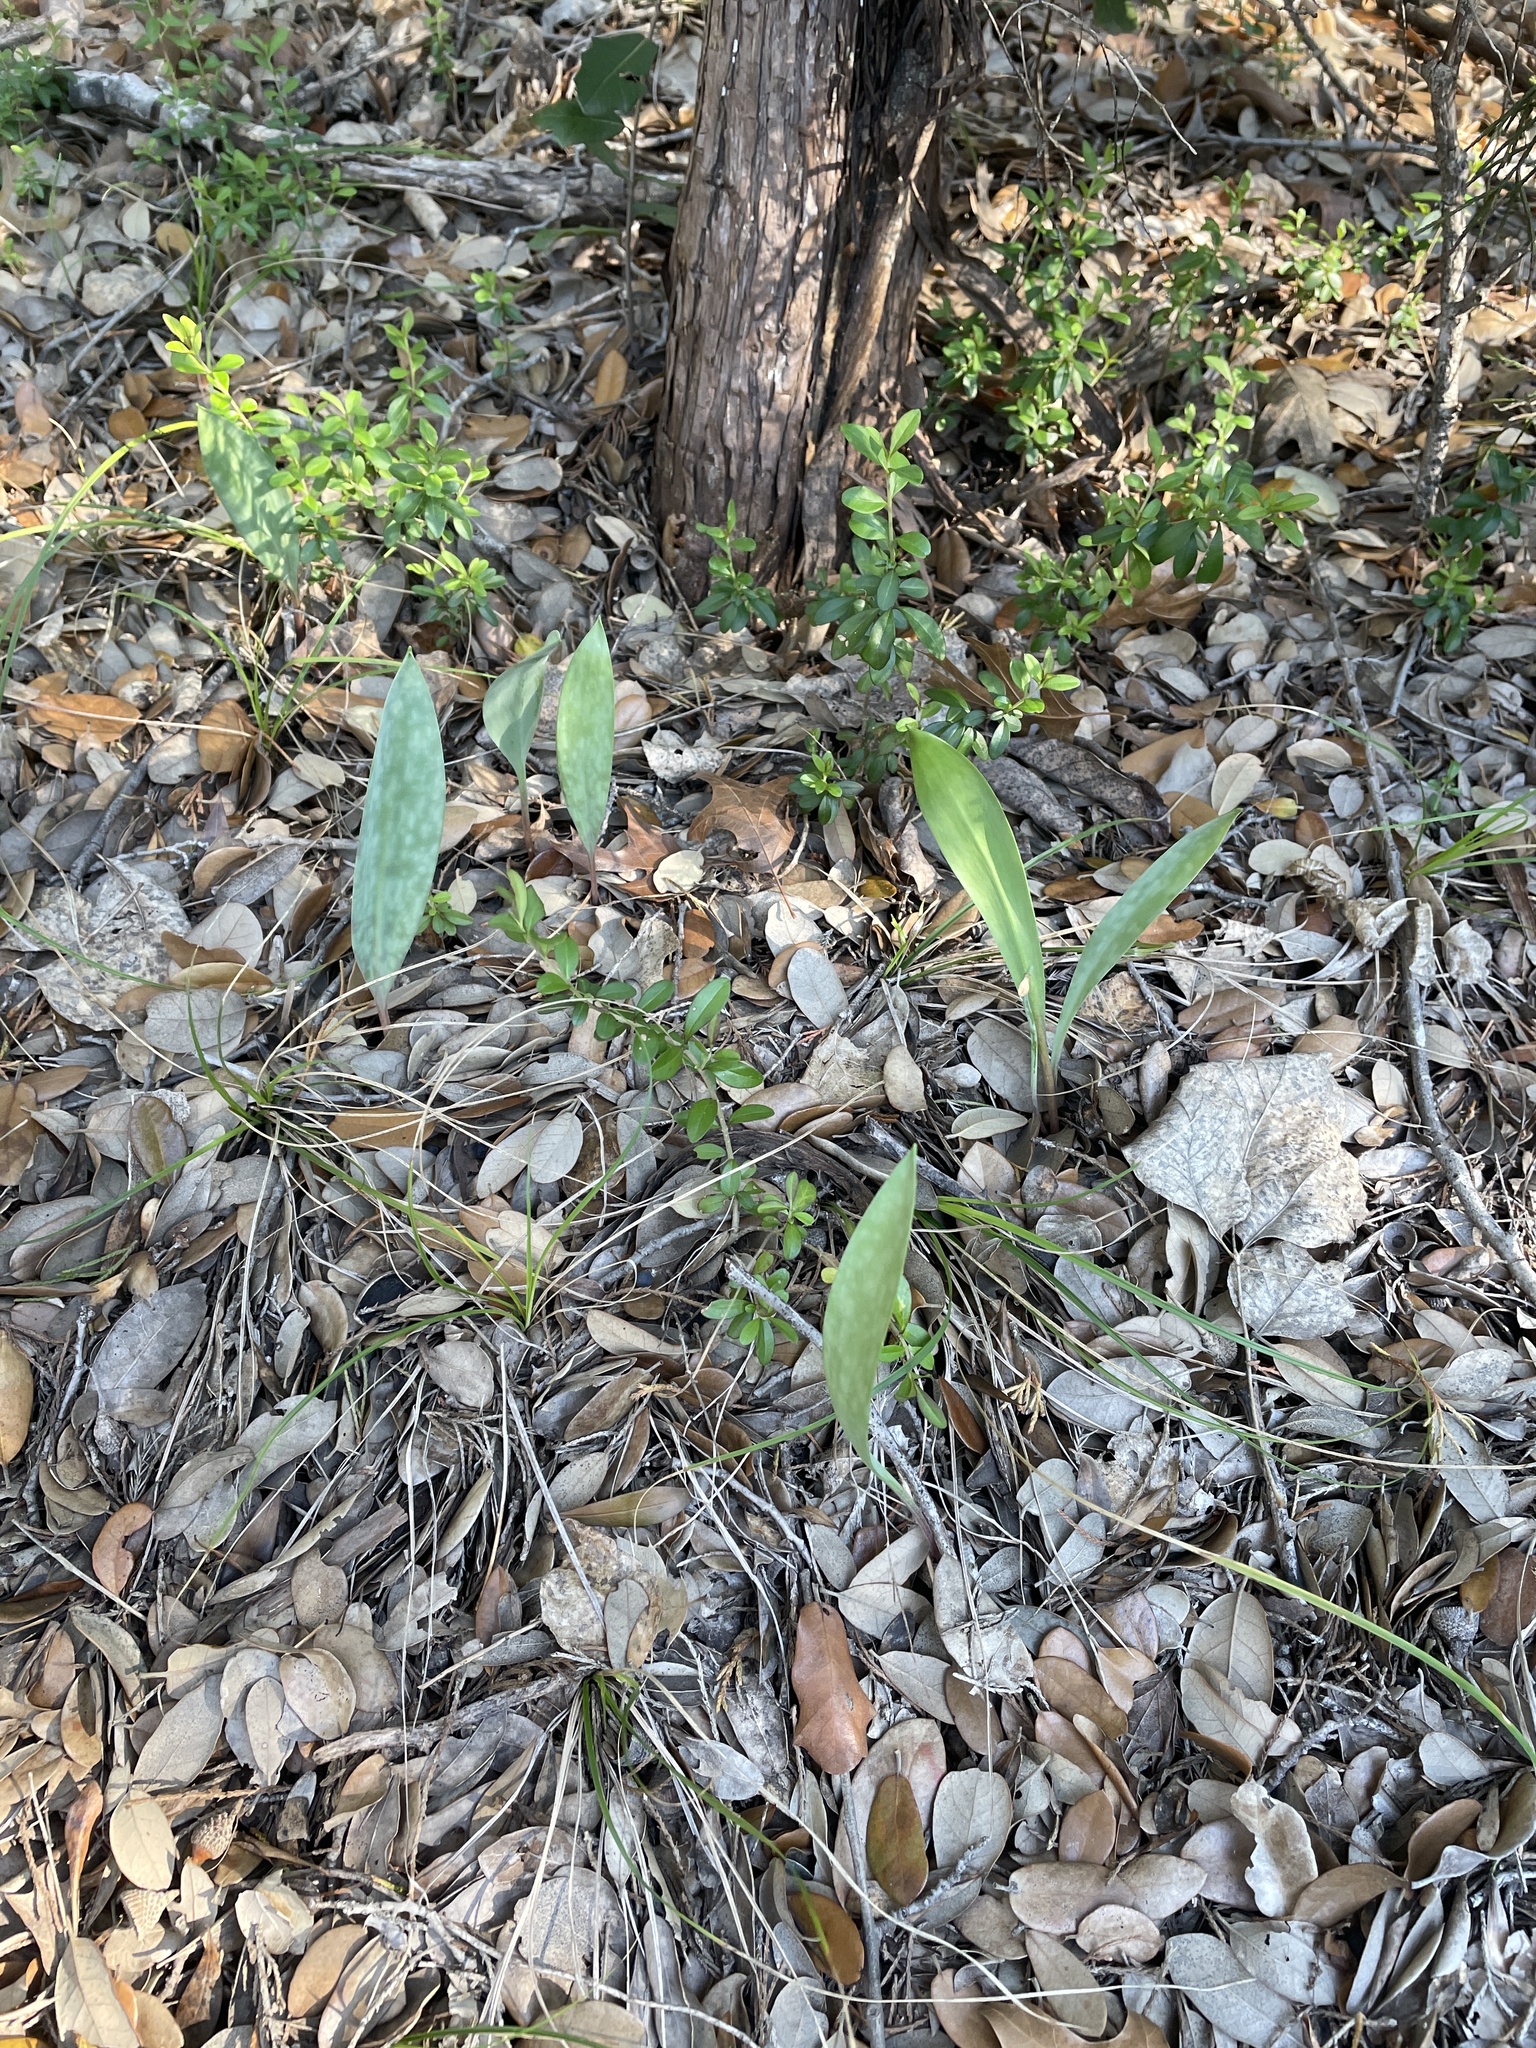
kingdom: Plantae
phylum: Tracheophyta
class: Liliopsida
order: Liliales
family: Liliaceae
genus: Erythronium
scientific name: Erythronium albidum
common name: White trout-lily
